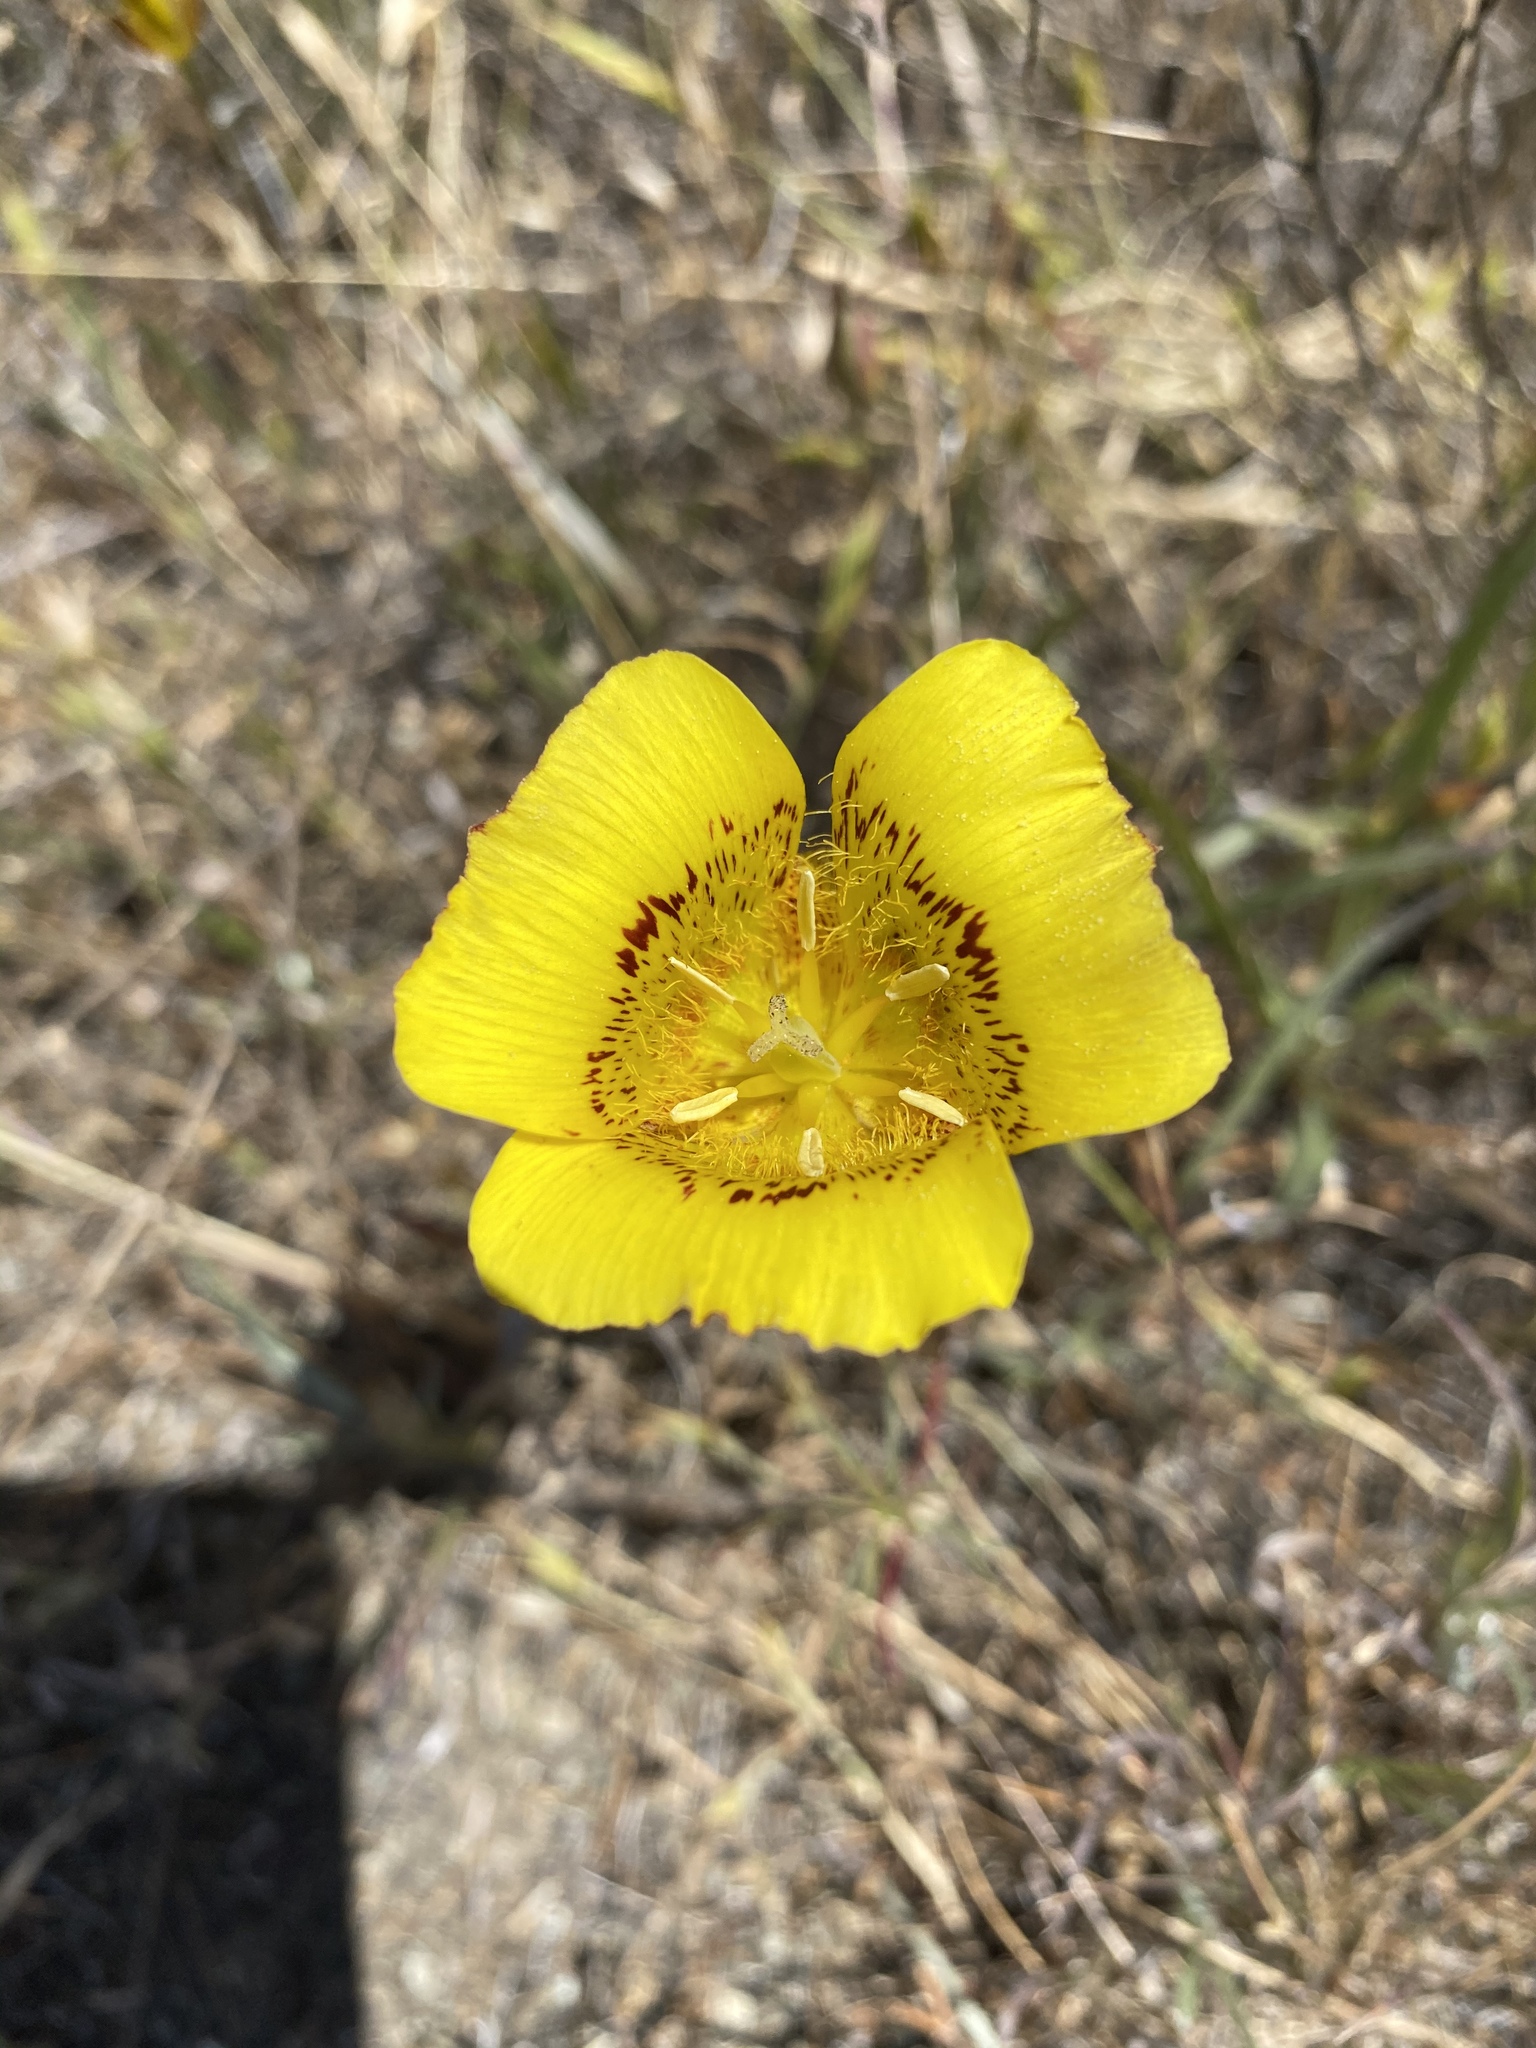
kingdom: Plantae
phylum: Tracheophyta
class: Liliopsida
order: Liliales
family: Liliaceae
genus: Calochortus
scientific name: Calochortus luteus
